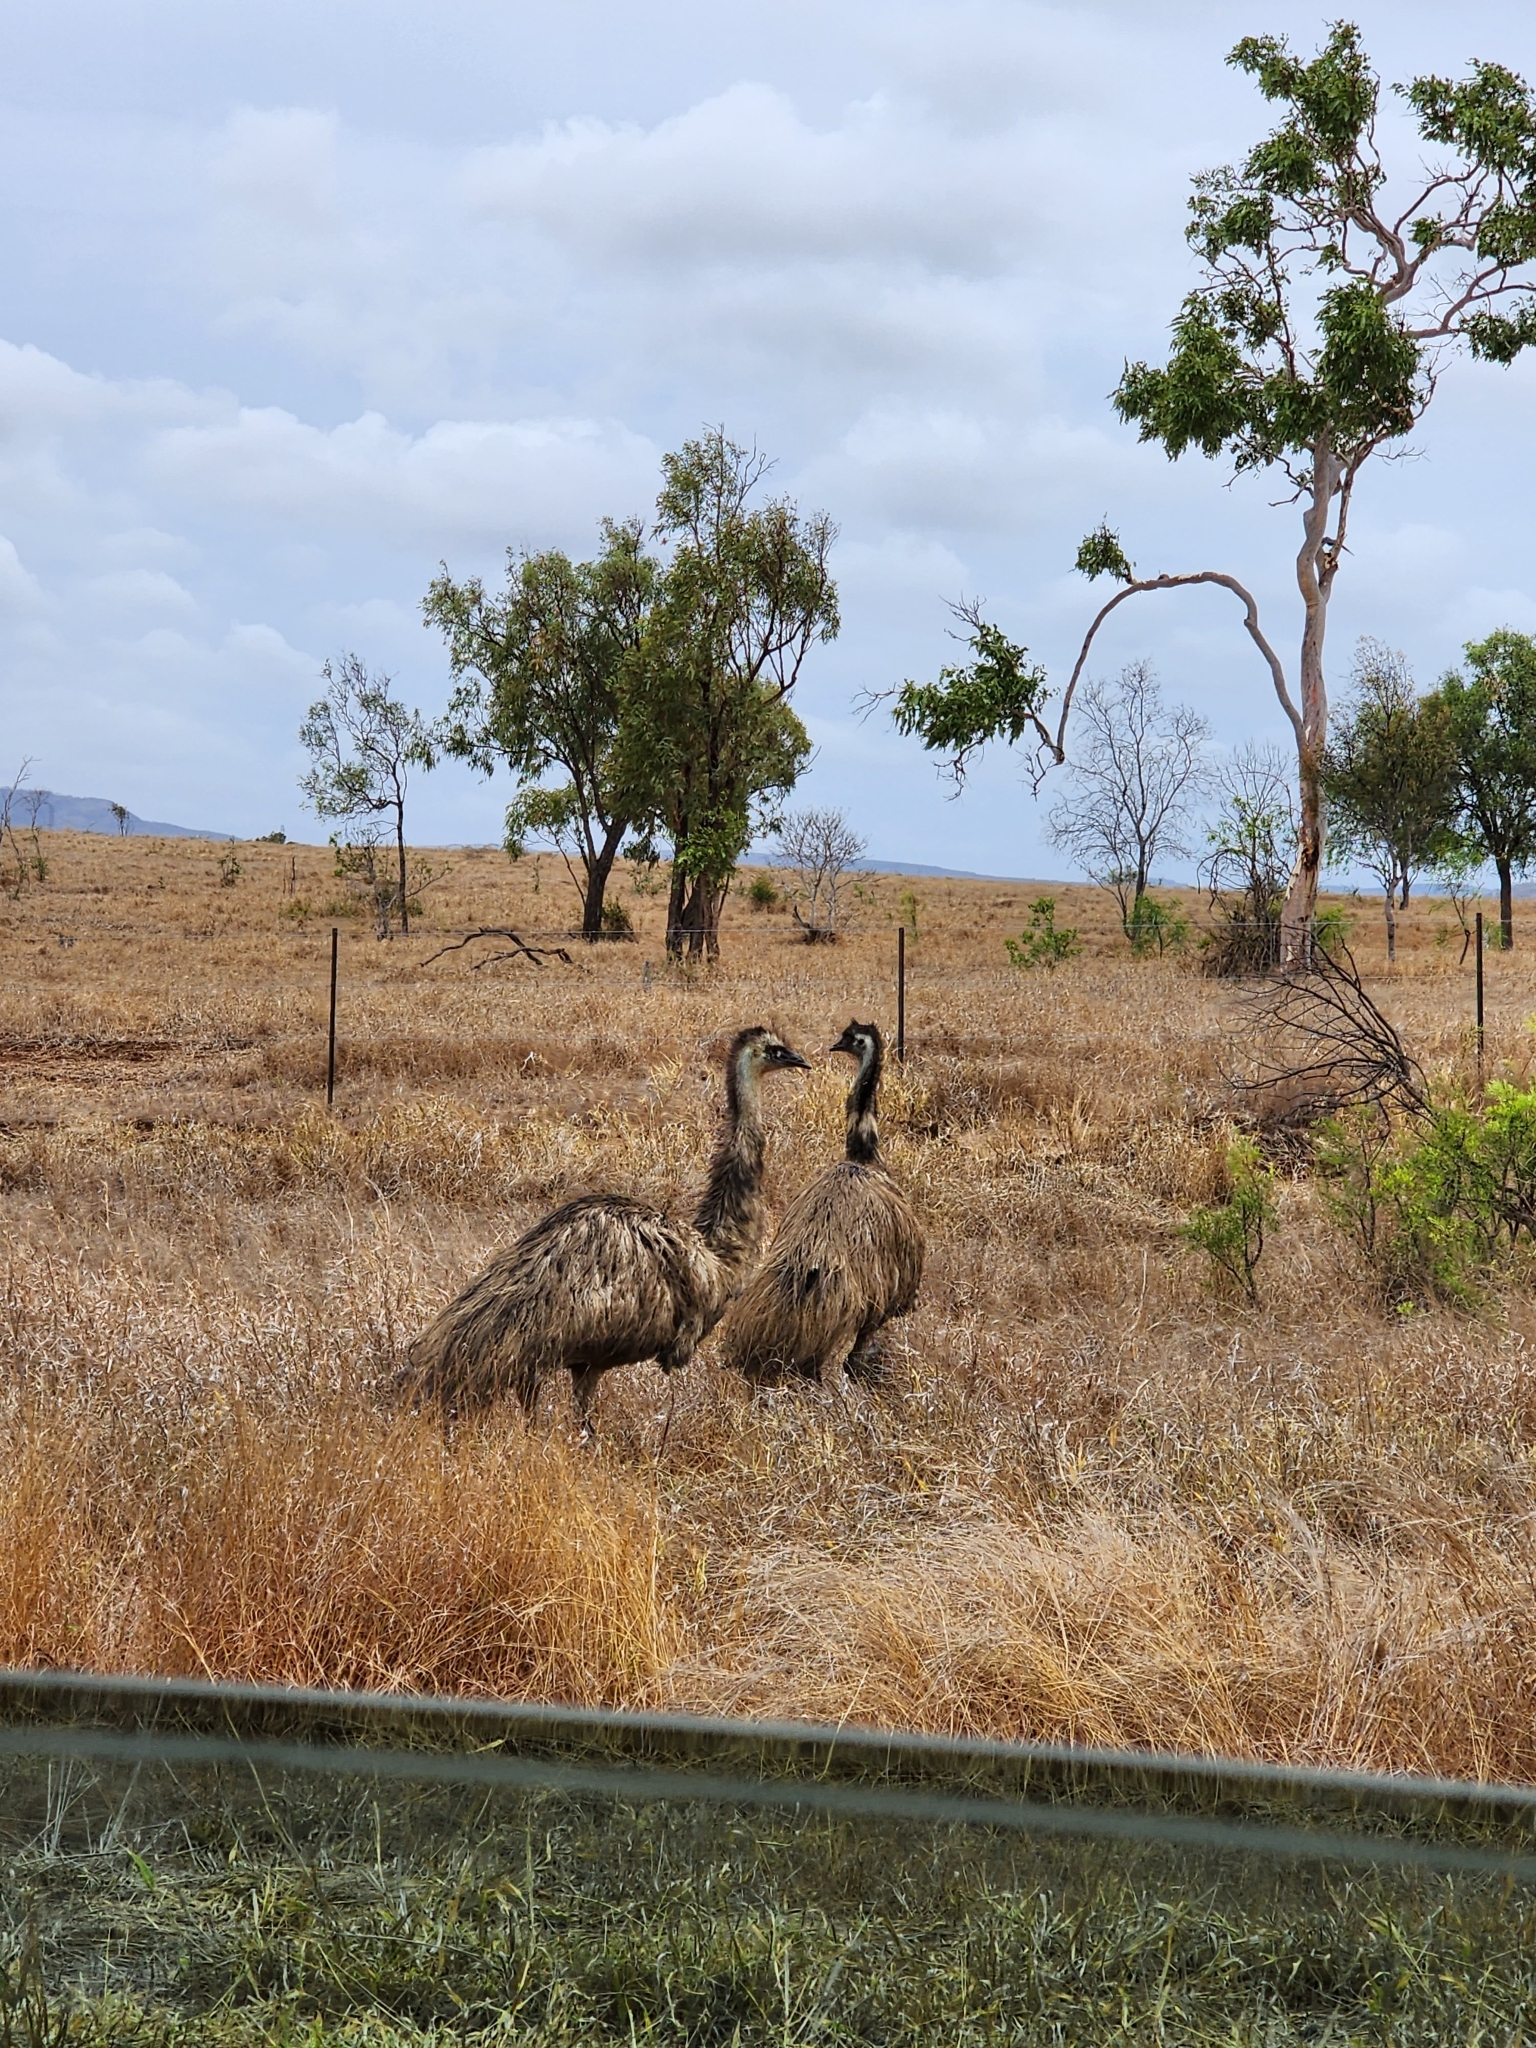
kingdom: Animalia
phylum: Chordata
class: Aves
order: Casuariiformes
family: Dromaiidae
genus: Dromaius
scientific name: Dromaius novaehollandiae
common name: Emu
